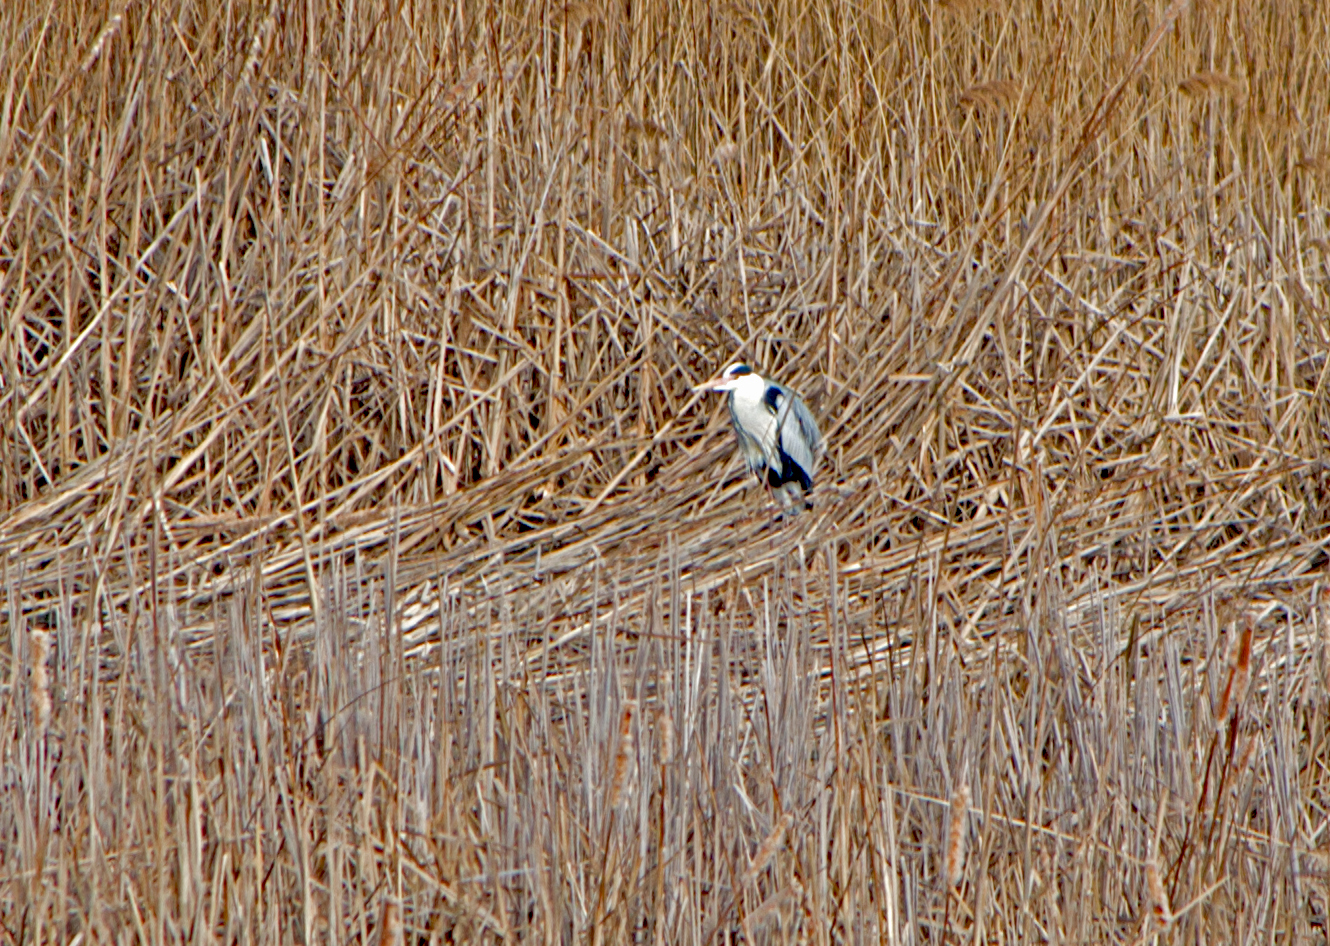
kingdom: Animalia
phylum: Chordata
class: Aves
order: Pelecaniformes
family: Ardeidae
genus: Ardea
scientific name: Ardea cinerea
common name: Grey heron
